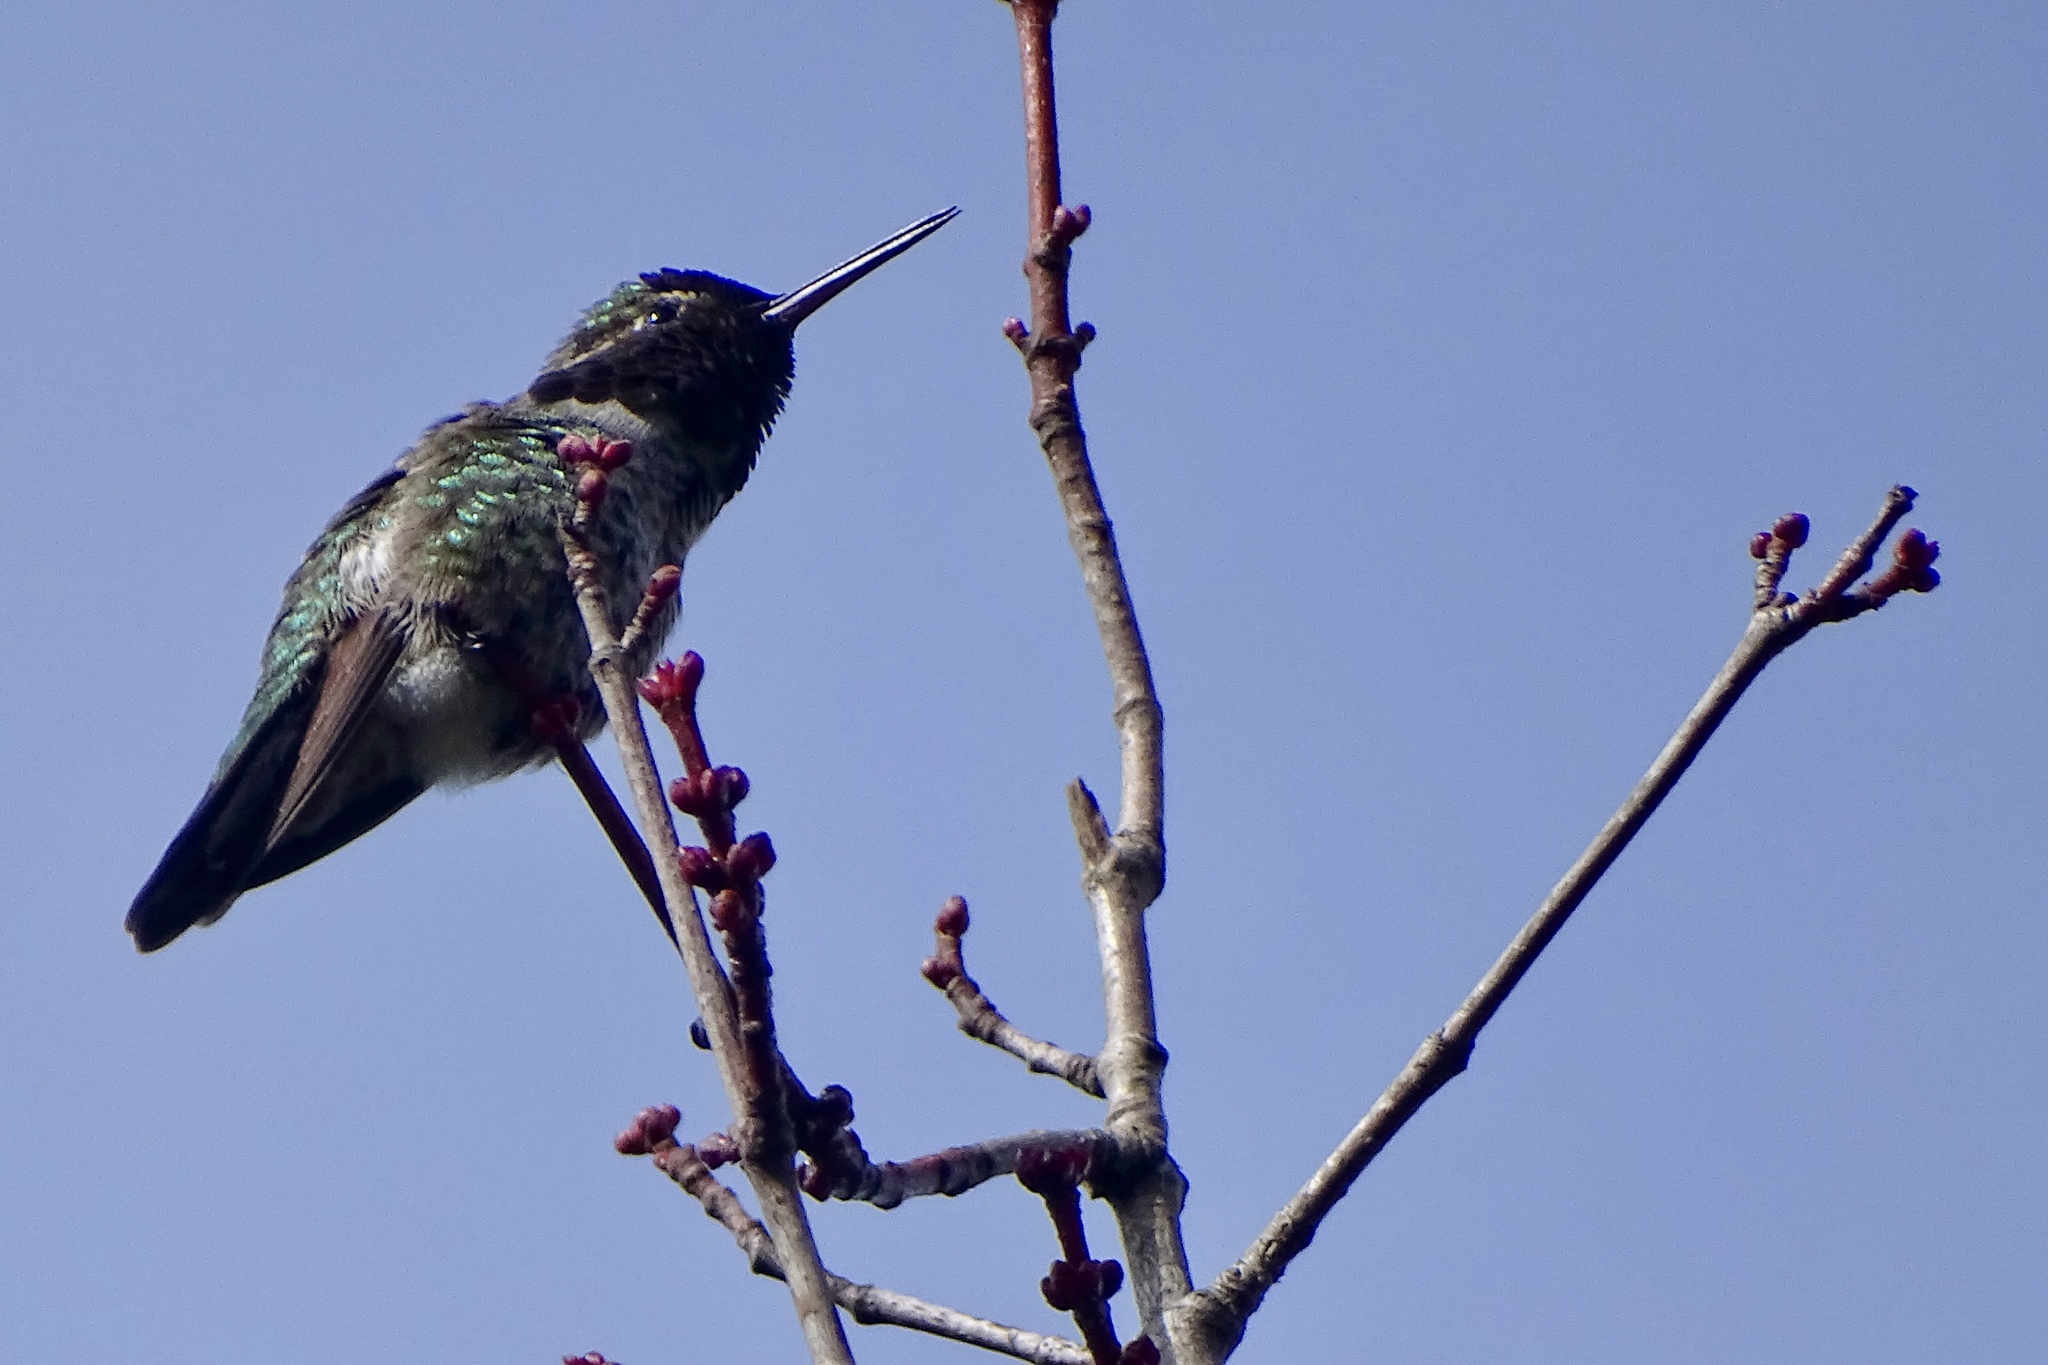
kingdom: Animalia
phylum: Chordata
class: Aves
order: Apodiformes
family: Trochilidae
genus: Calypte
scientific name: Calypte anna
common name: Anna's hummingbird
